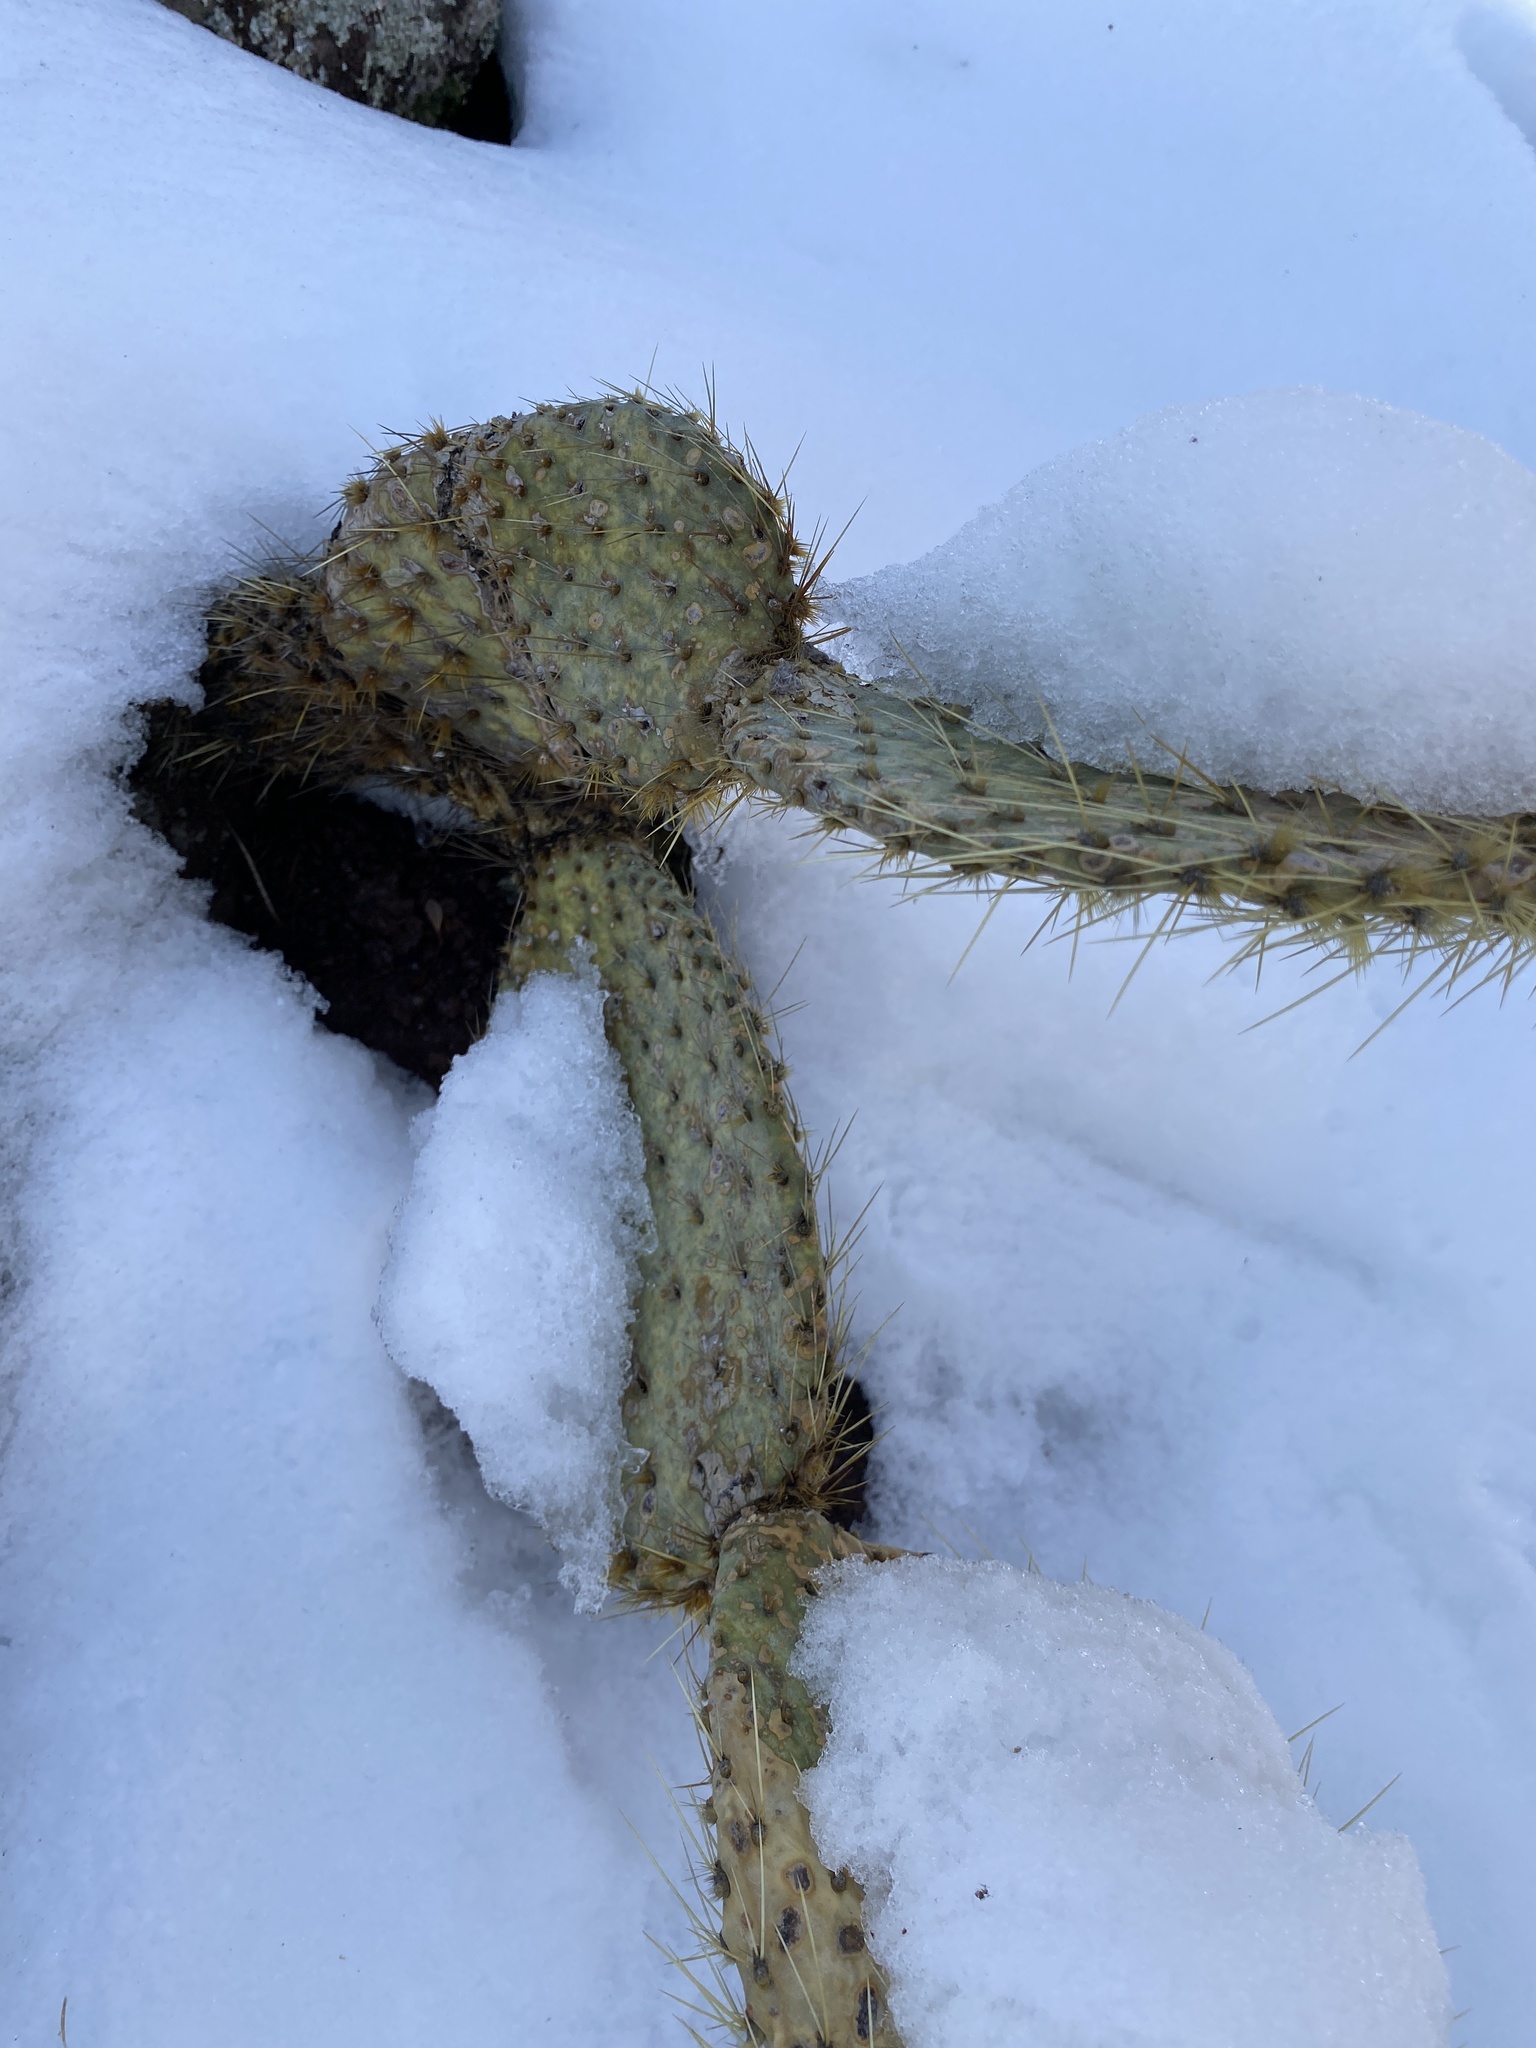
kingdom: Plantae
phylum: Tracheophyta
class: Magnoliopsida
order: Caryophyllales
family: Cactaceae
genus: Opuntia
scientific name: Opuntia chlorotica
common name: Dollar-joint prickly-pear
